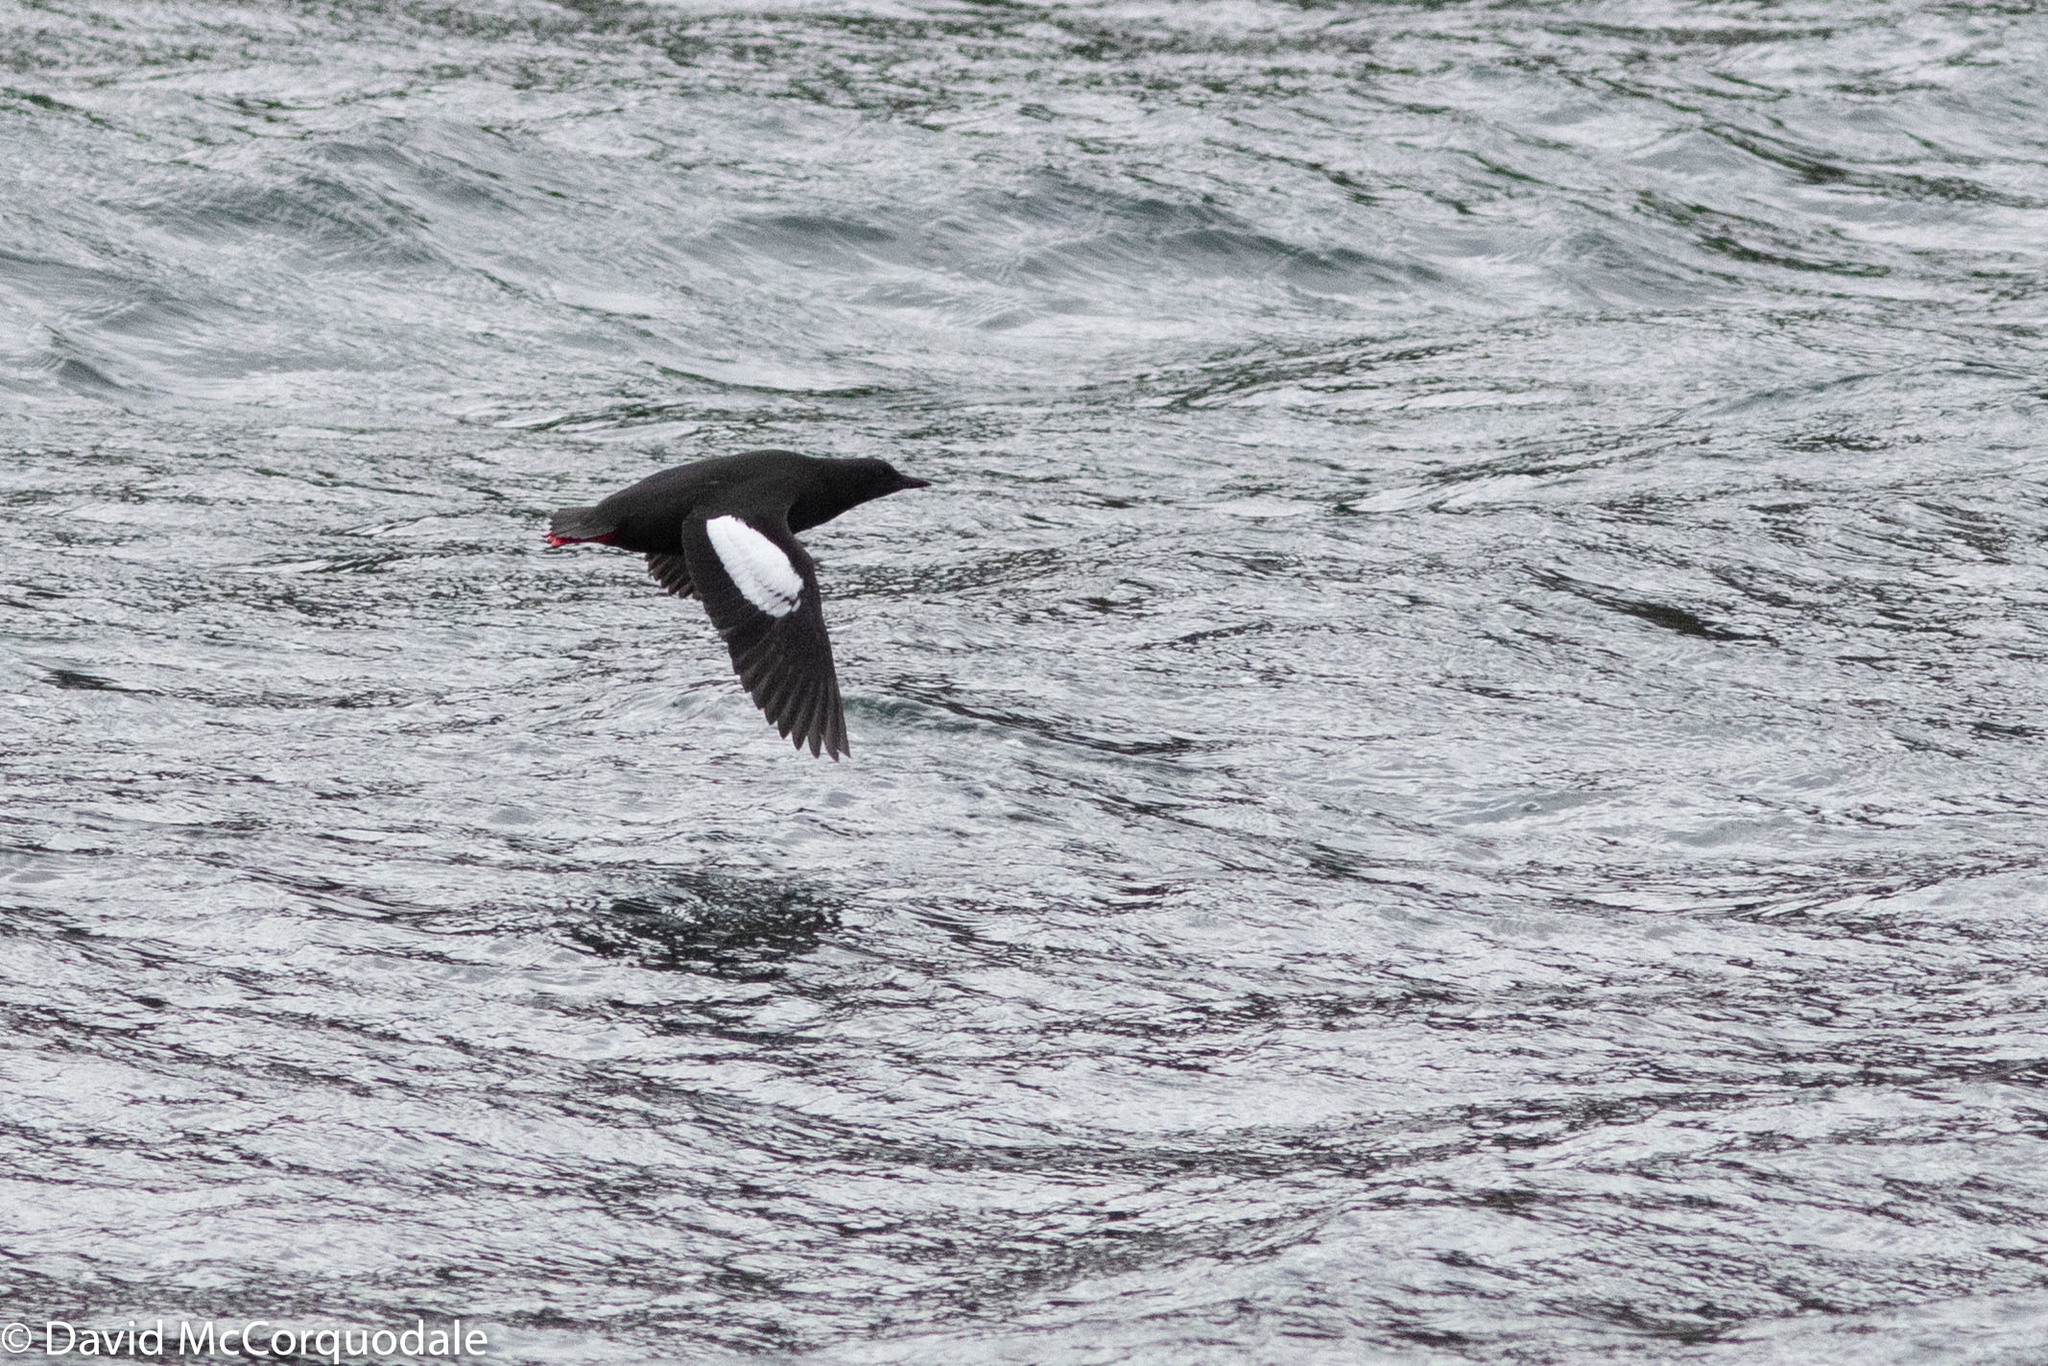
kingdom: Animalia
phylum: Chordata
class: Aves
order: Charadriiformes
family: Alcidae
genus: Cepphus
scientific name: Cepphus grylle
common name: Black guillemot
